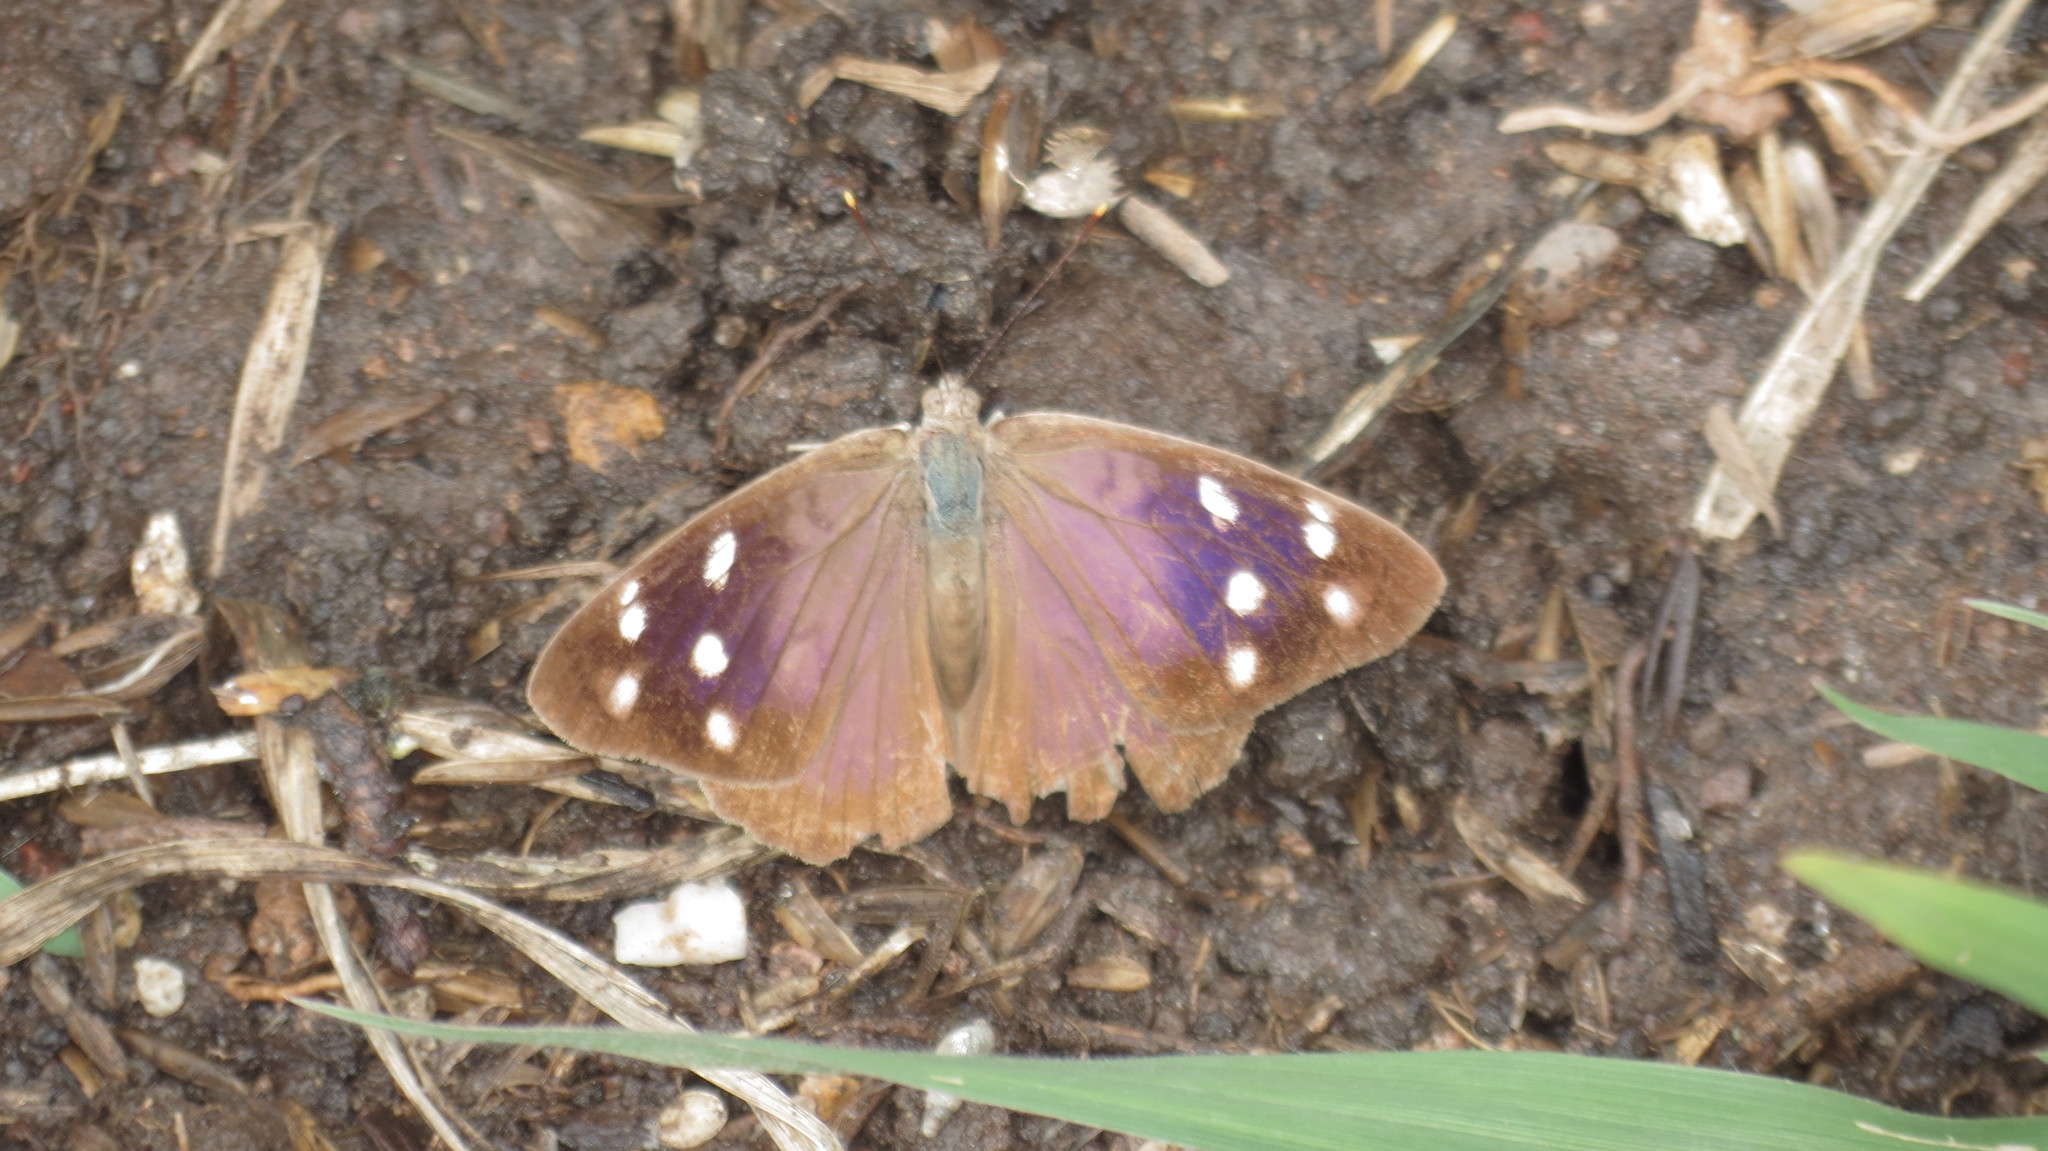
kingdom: Animalia
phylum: Arthropoda
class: Insecta
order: Lepidoptera
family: Nymphalidae
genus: Eunica
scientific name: Eunica monima
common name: Dingy purplewing
